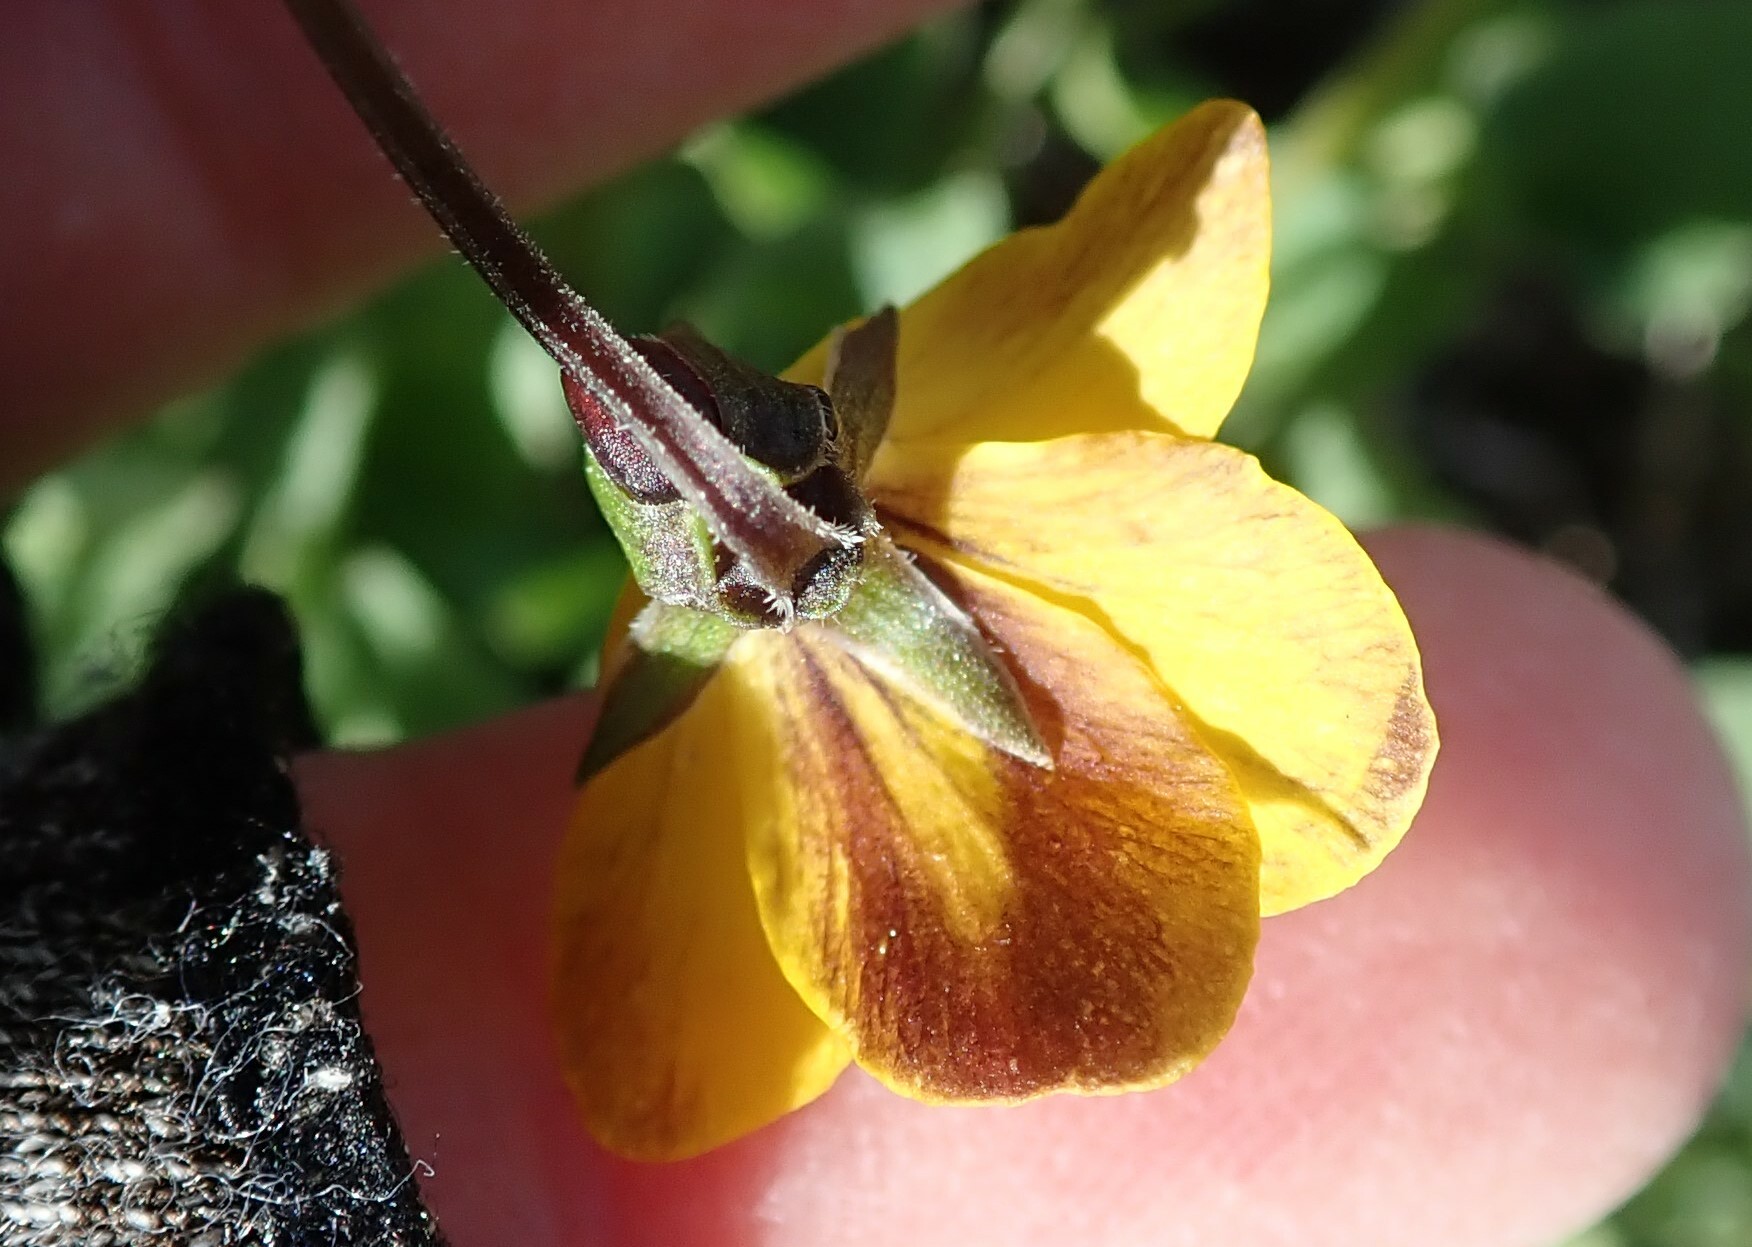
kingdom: Plantae
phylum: Tracheophyta
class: Magnoliopsida
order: Malpighiales
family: Violaceae
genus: Viola
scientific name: Viola pedunculata
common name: California golden violet
